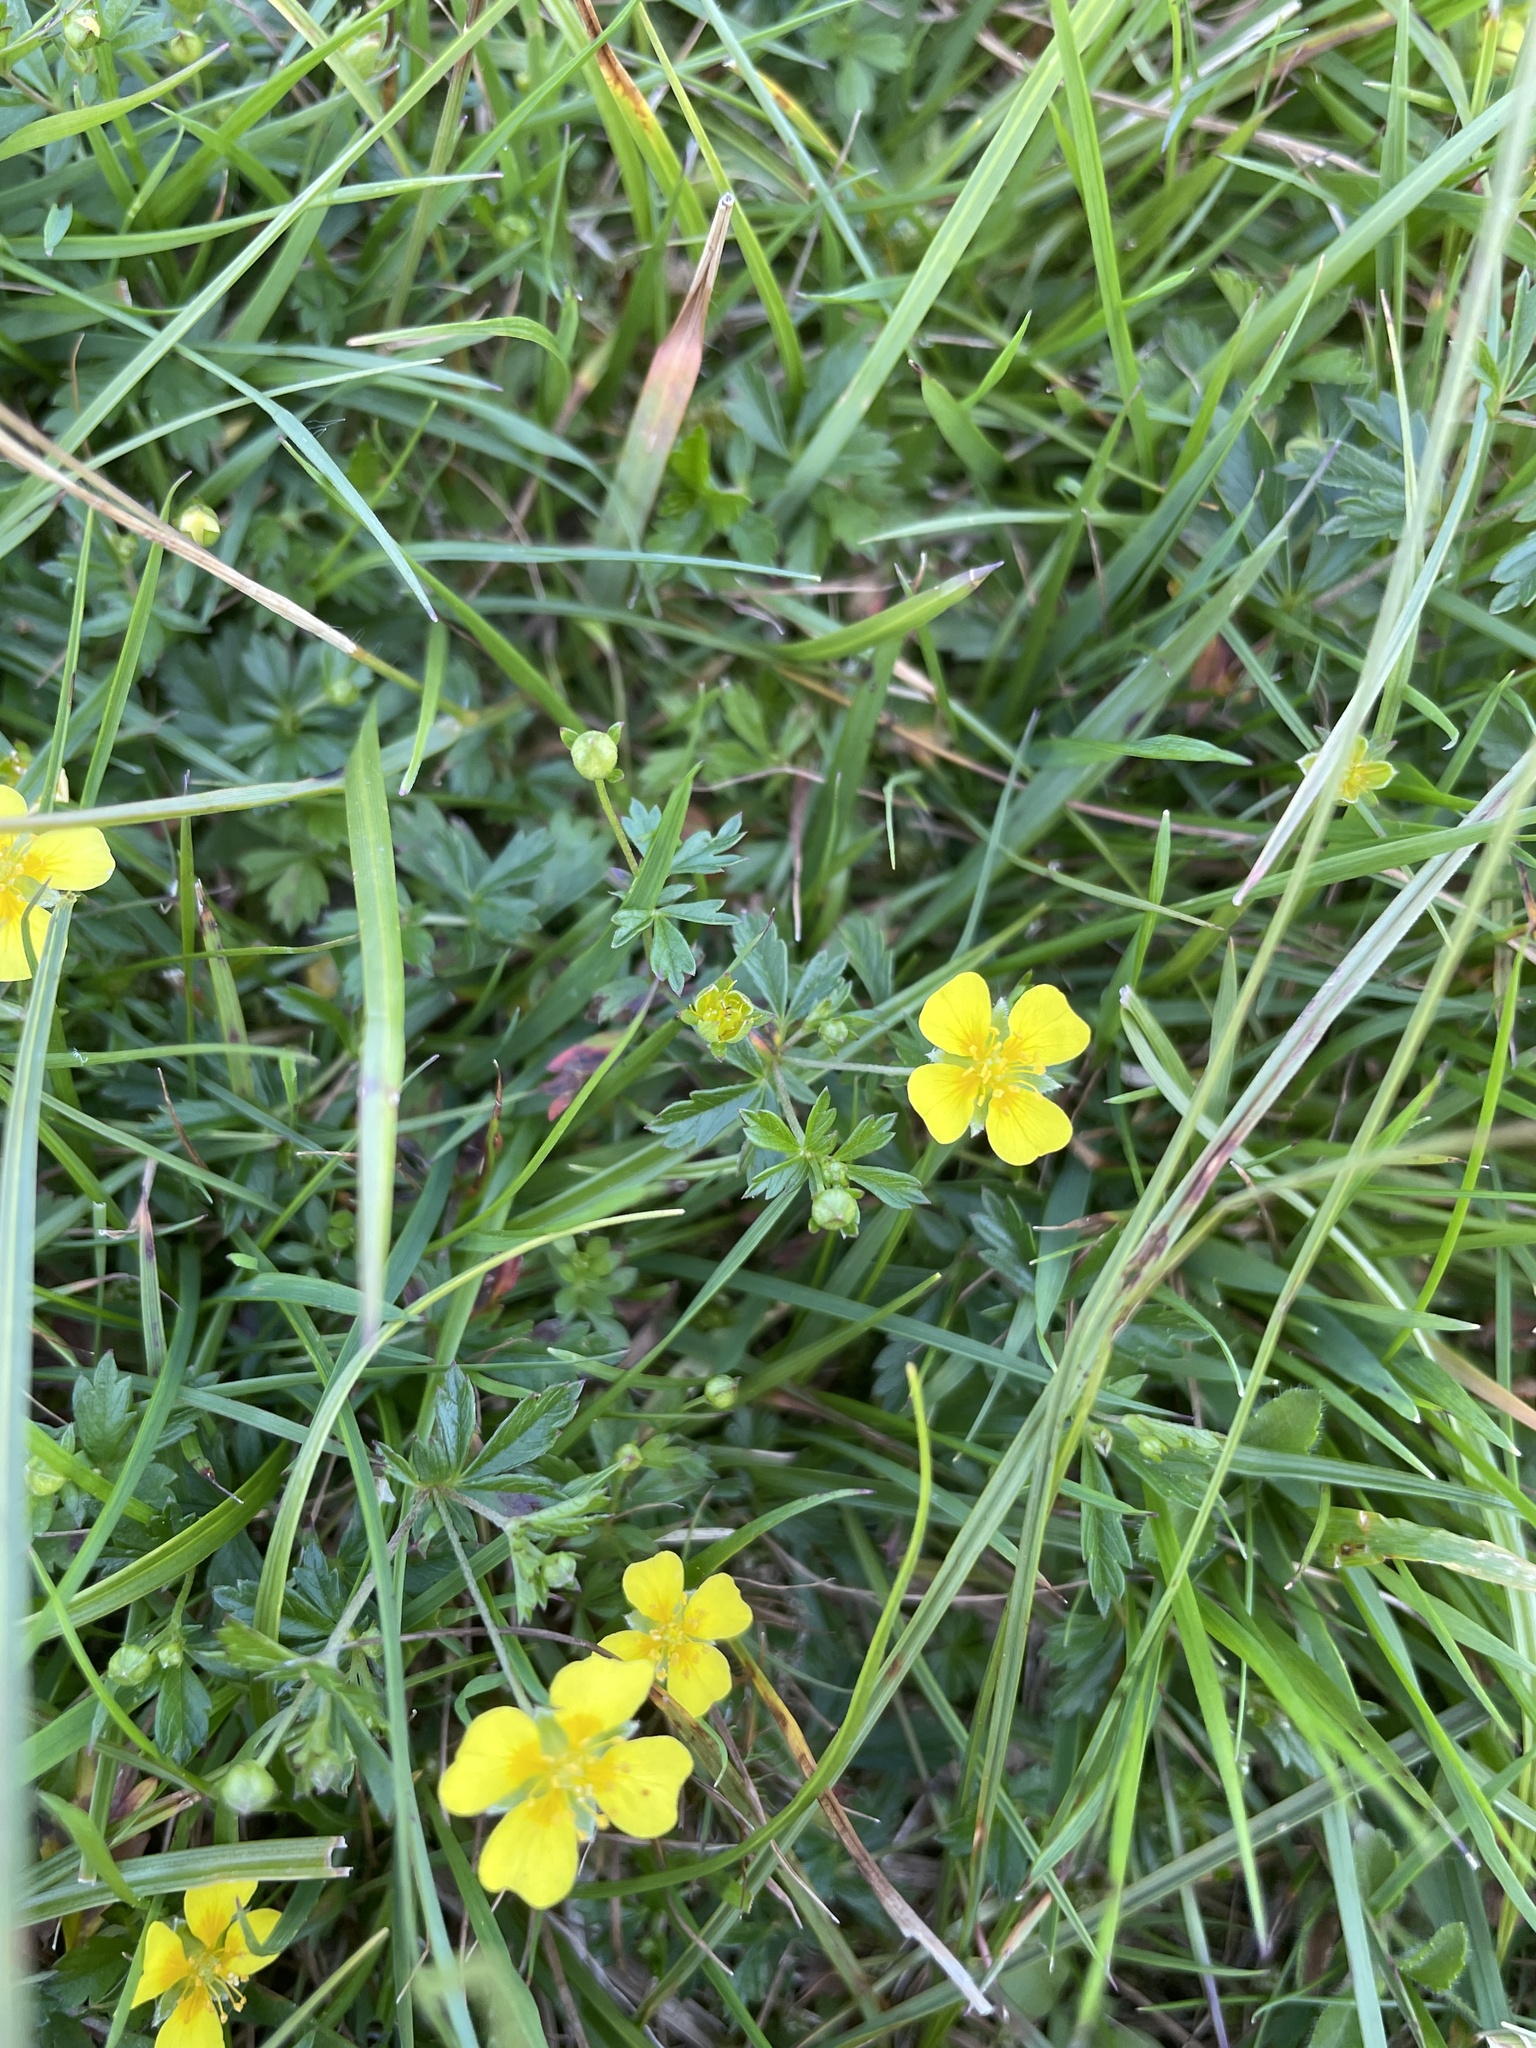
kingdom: Plantae
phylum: Tracheophyta
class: Magnoliopsida
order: Rosales
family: Rosaceae
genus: Potentilla
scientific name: Potentilla erecta
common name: Tormentil
